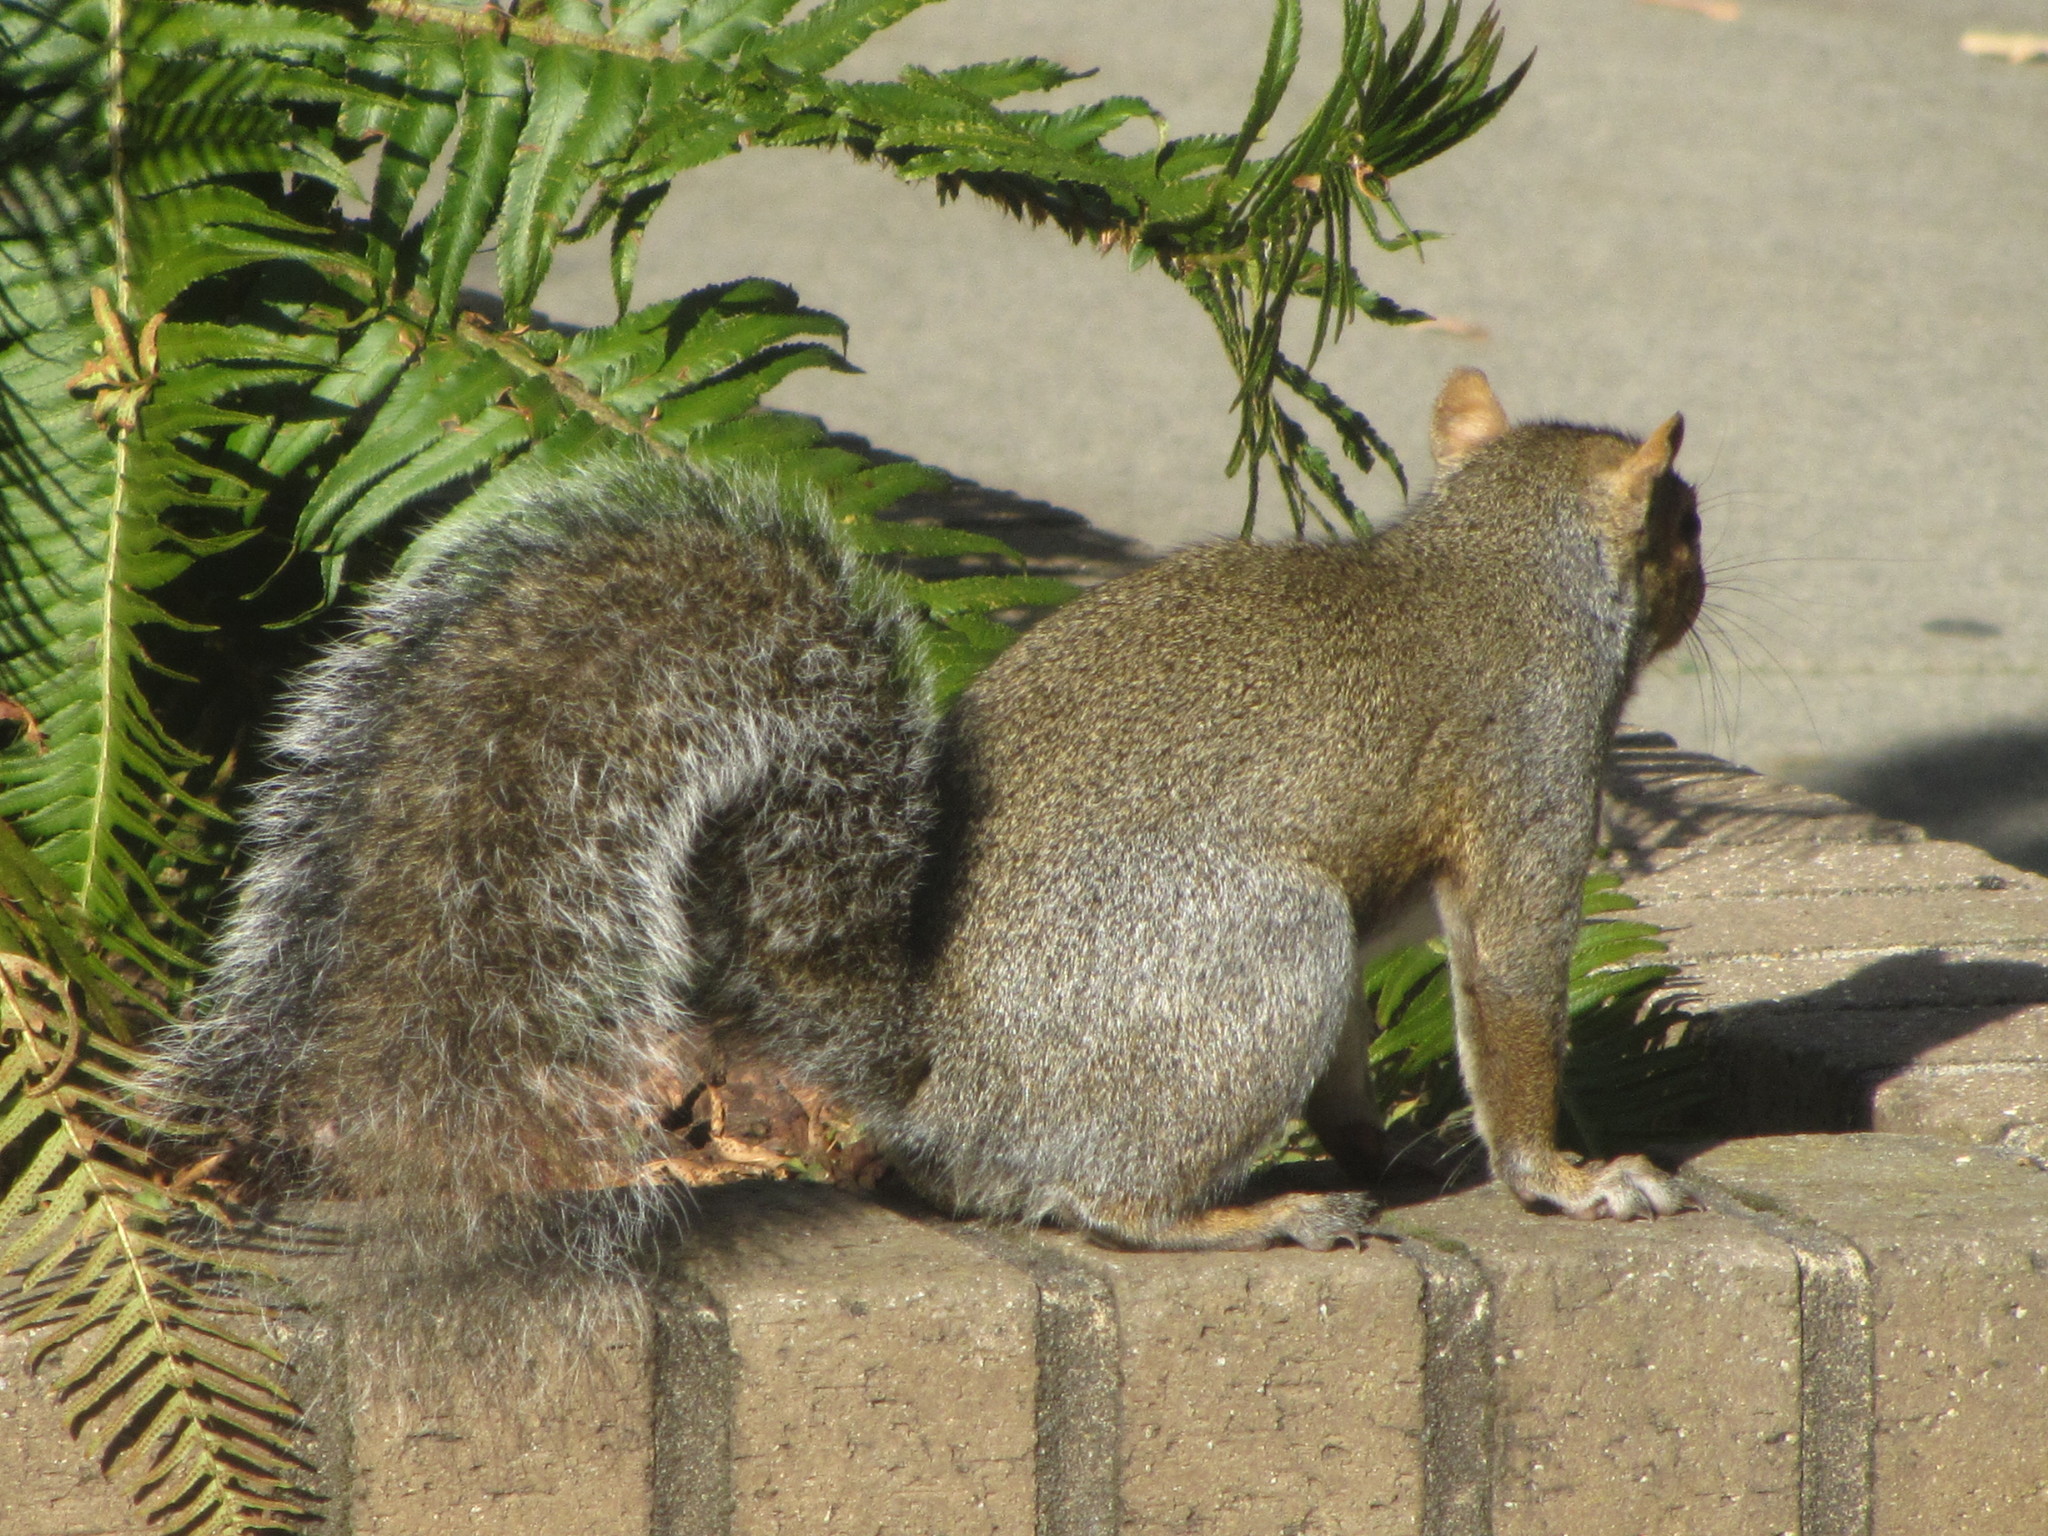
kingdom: Animalia
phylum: Chordata
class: Mammalia
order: Rodentia
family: Sciuridae
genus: Sciurus
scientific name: Sciurus carolinensis
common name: Eastern gray squirrel
